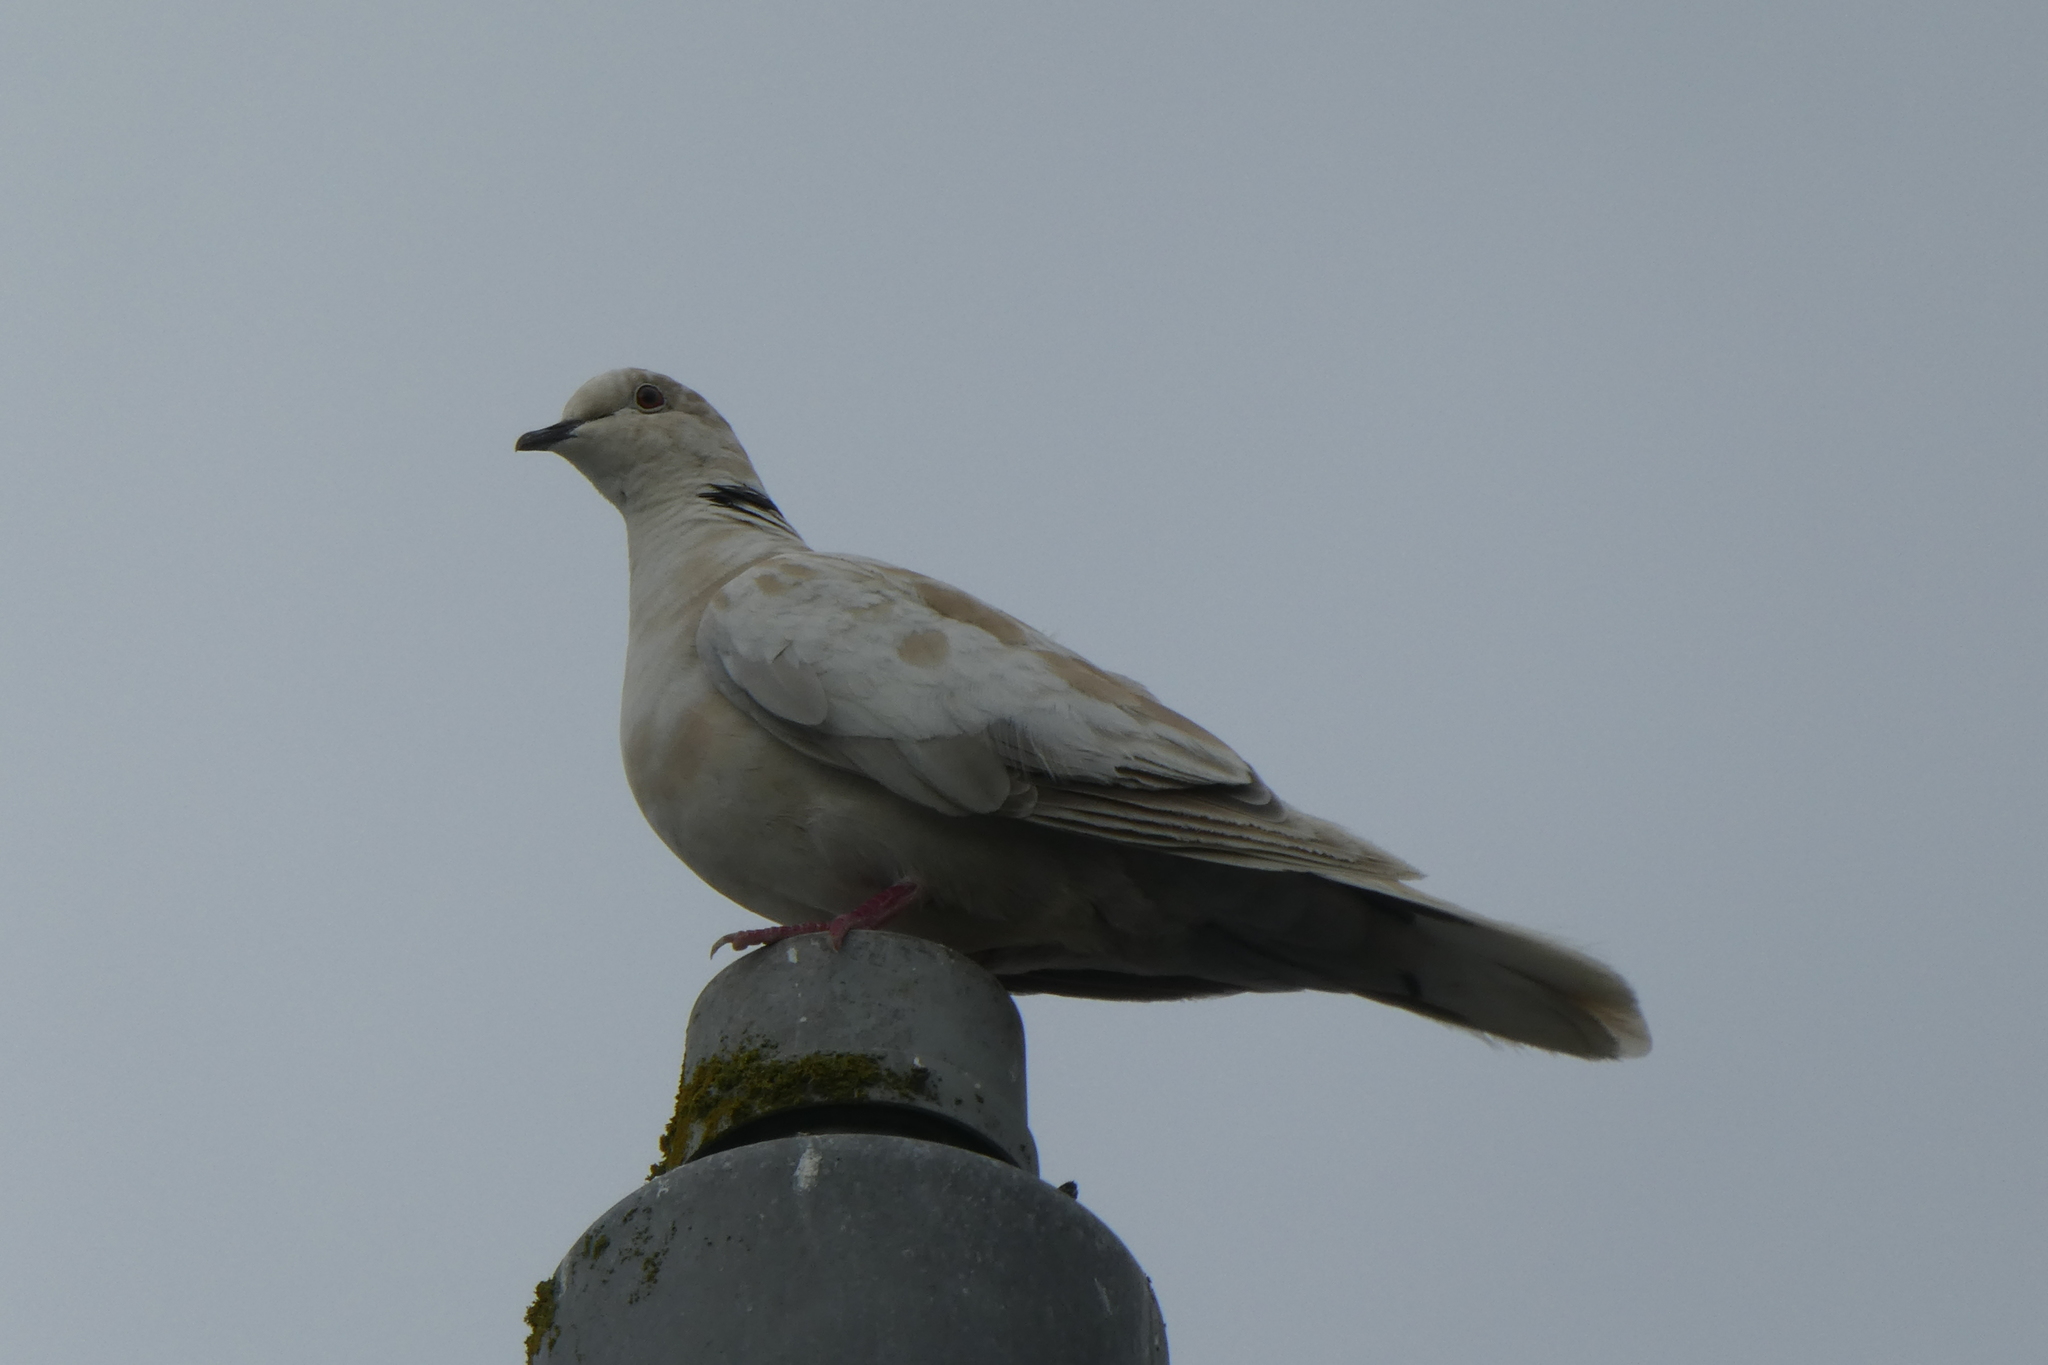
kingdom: Animalia
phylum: Chordata
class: Aves
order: Columbiformes
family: Columbidae
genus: Streptopelia
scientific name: Streptopelia decaocto
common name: Eurasian collared dove
